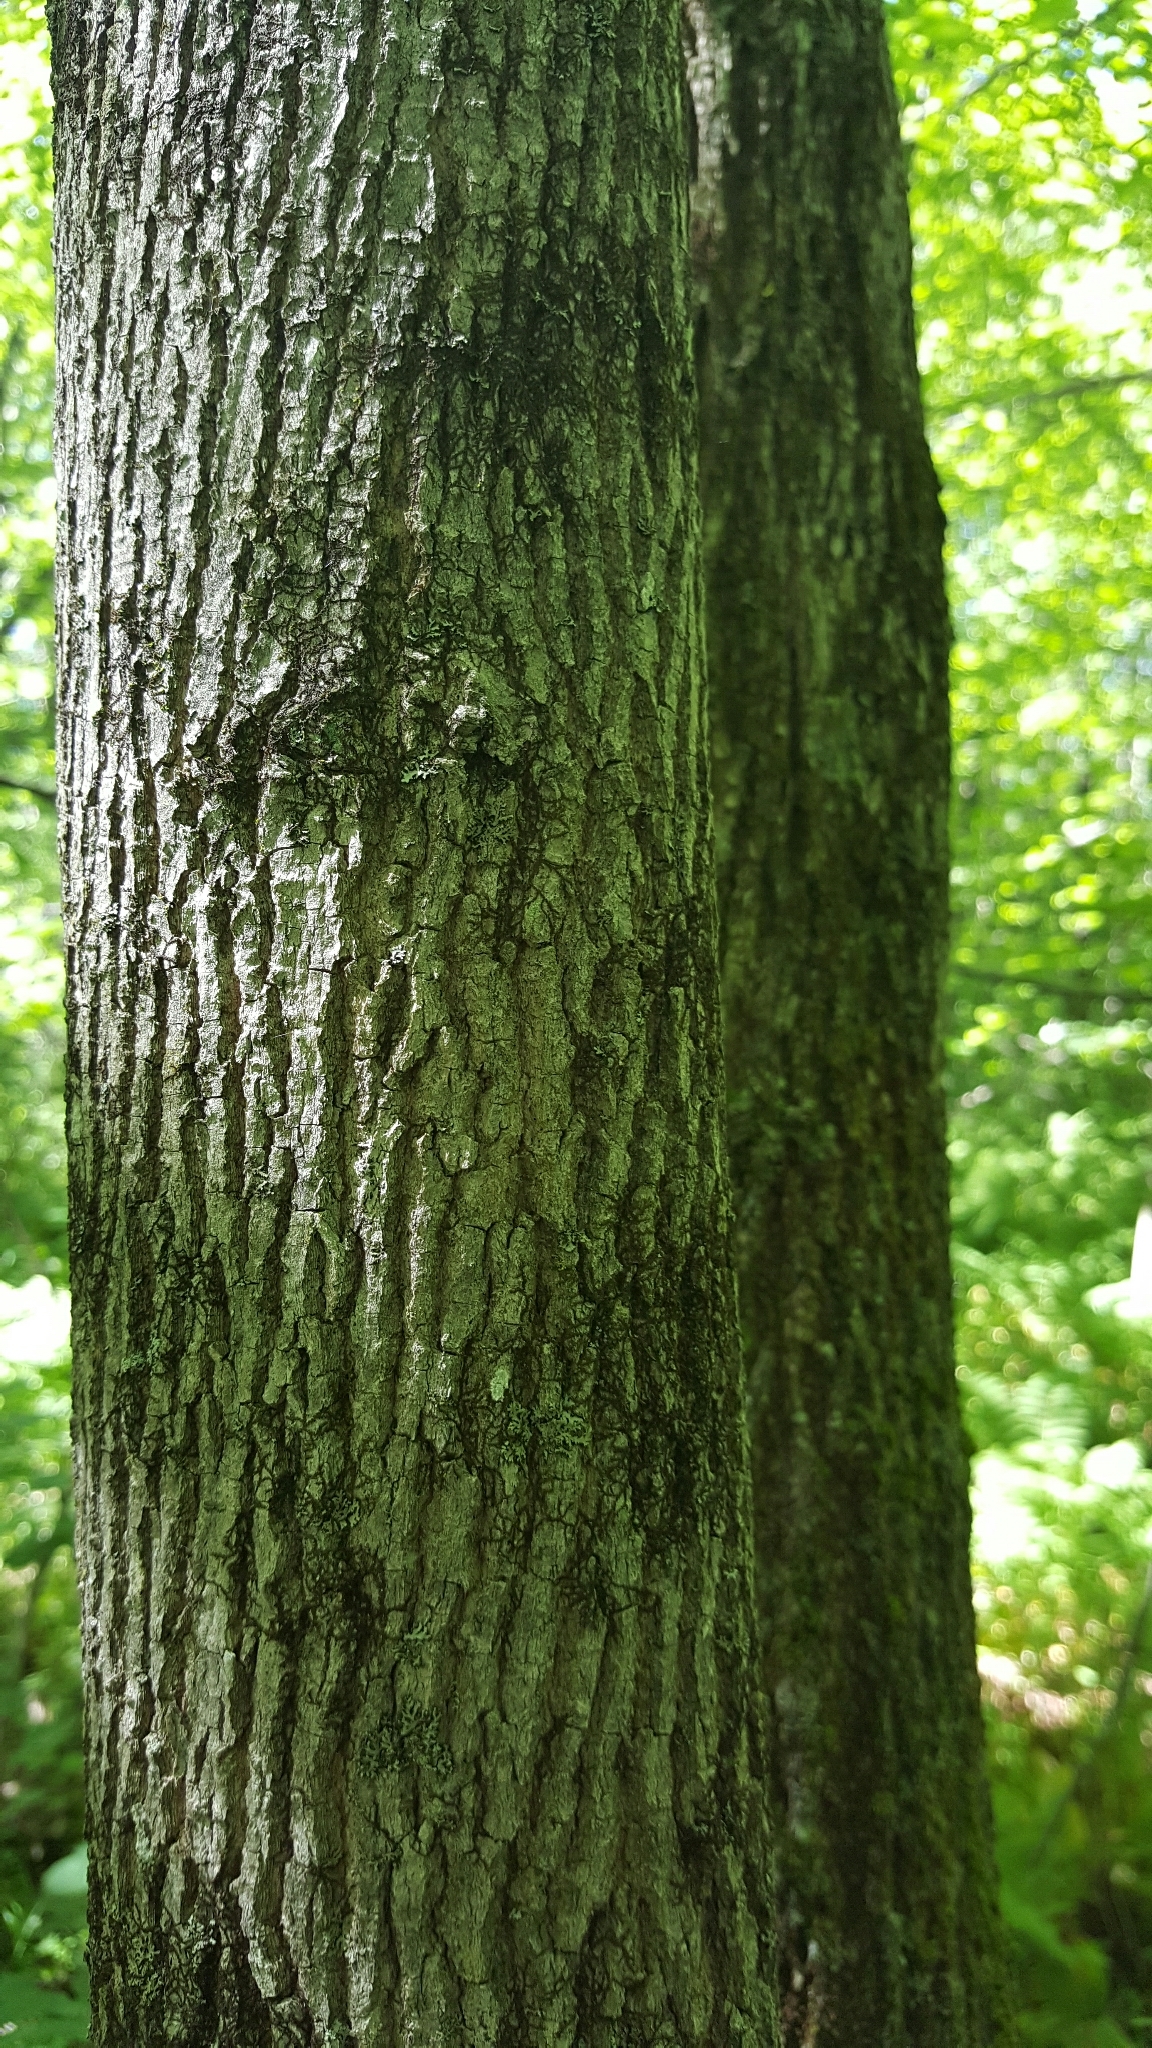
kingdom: Plantae
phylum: Tracheophyta
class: Magnoliopsida
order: Lamiales
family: Oleaceae
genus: Fraxinus
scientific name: Fraxinus americana
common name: White ash
